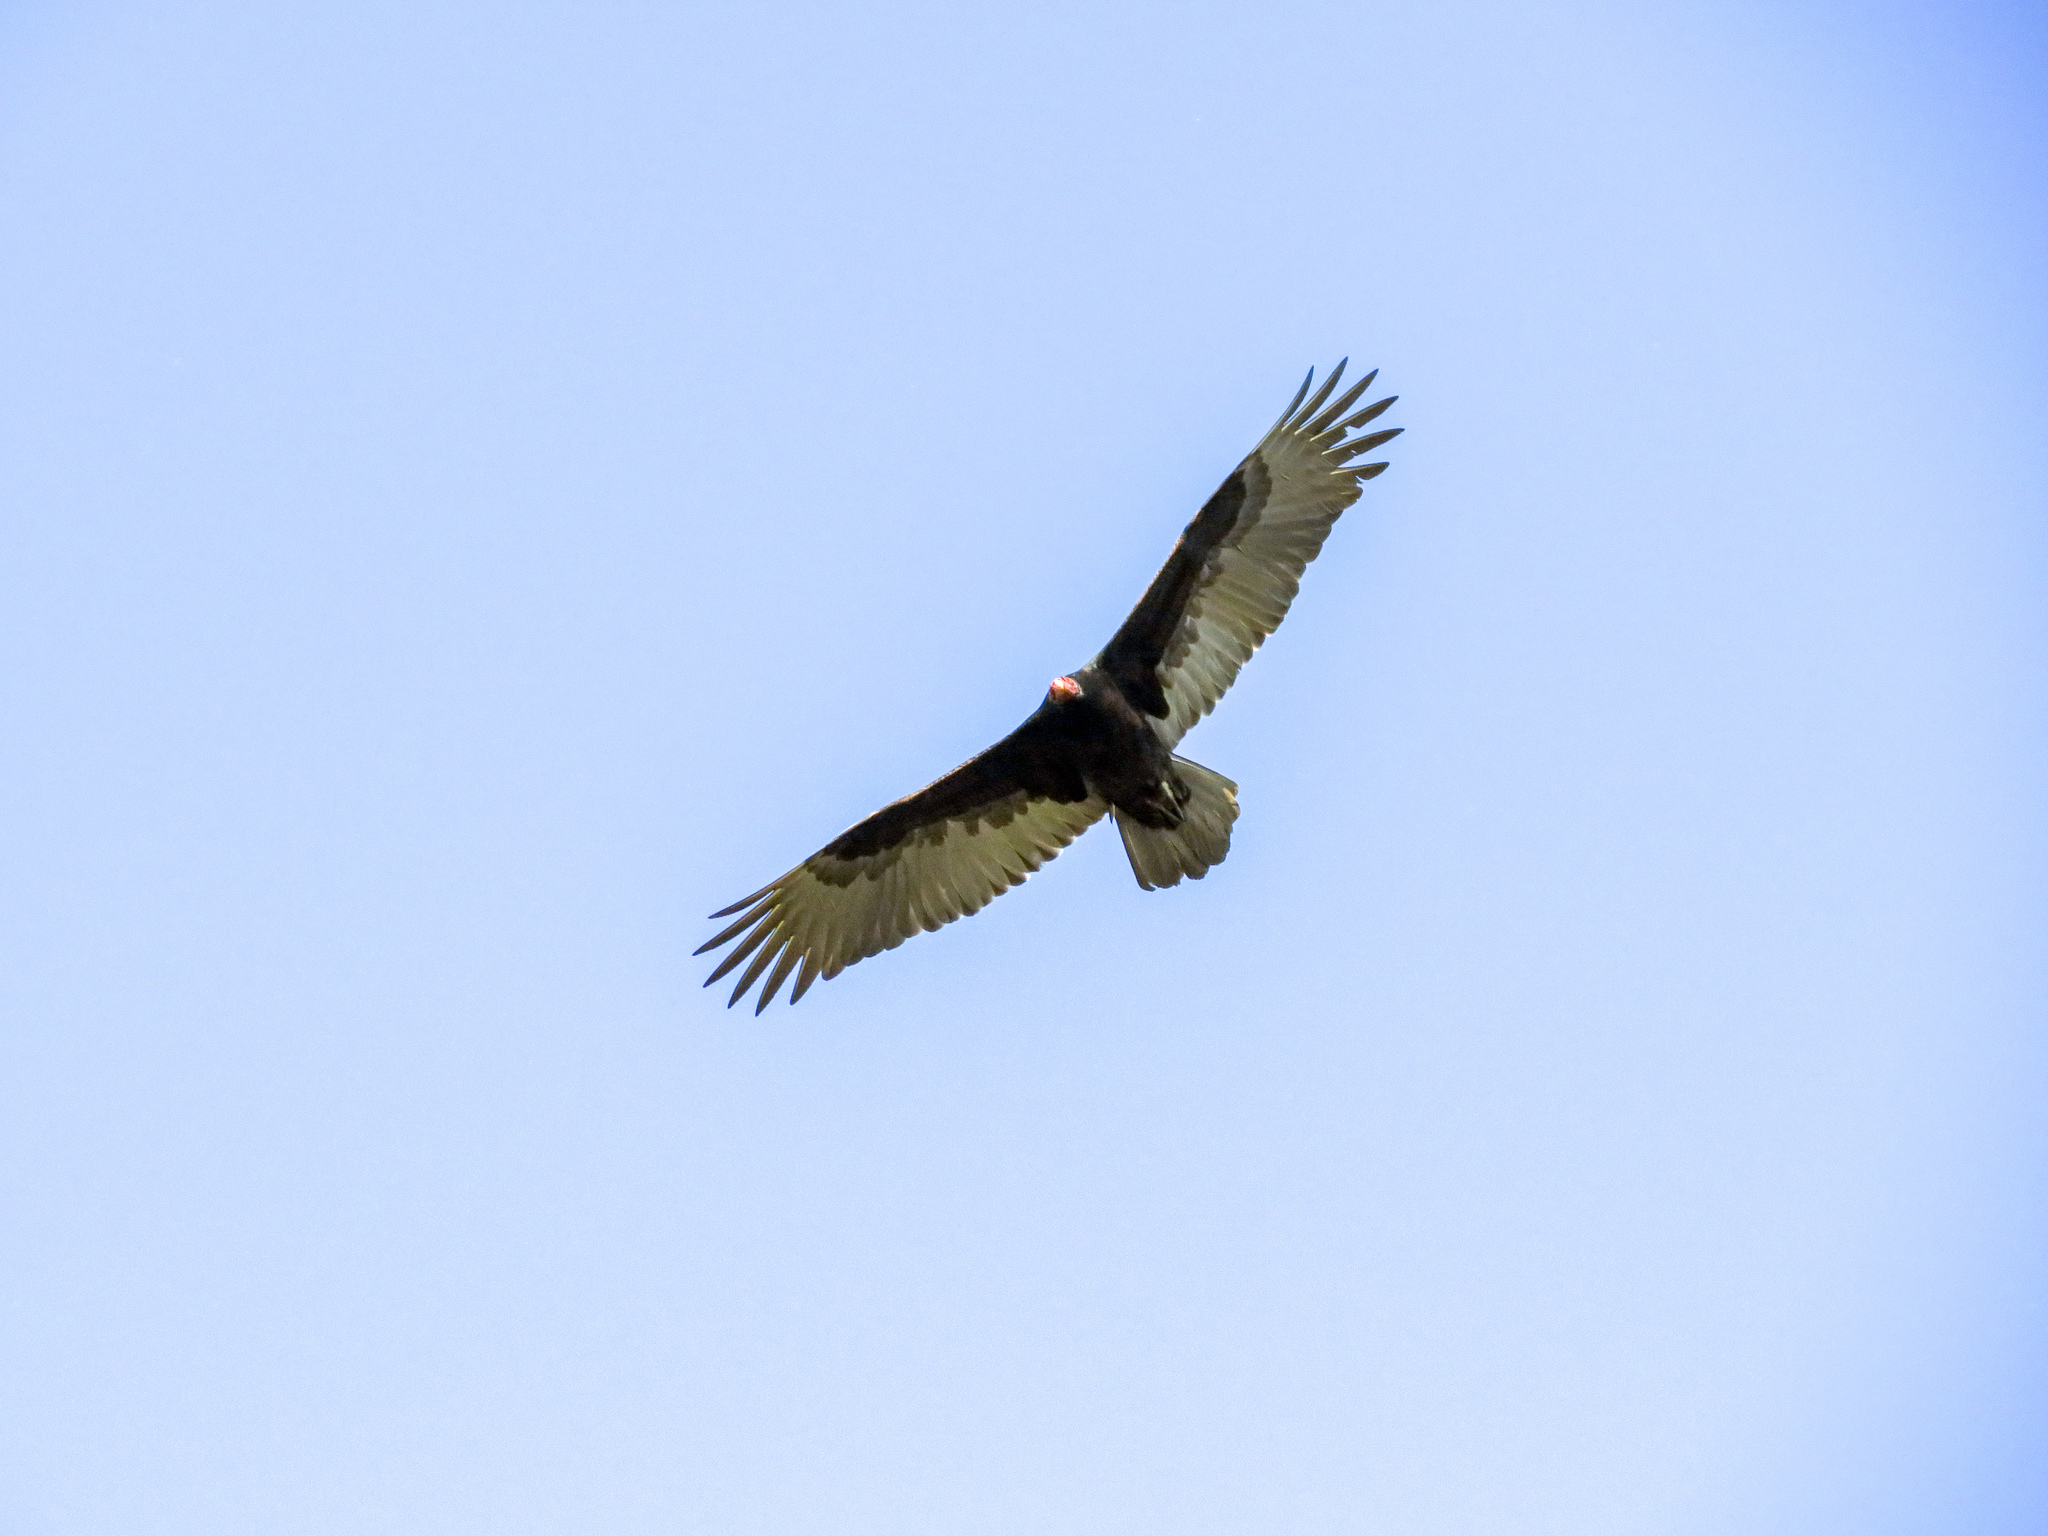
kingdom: Animalia
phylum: Chordata
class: Aves
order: Accipitriformes
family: Cathartidae
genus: Cathartes
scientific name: Cathartes aura
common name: Turkey vulture
